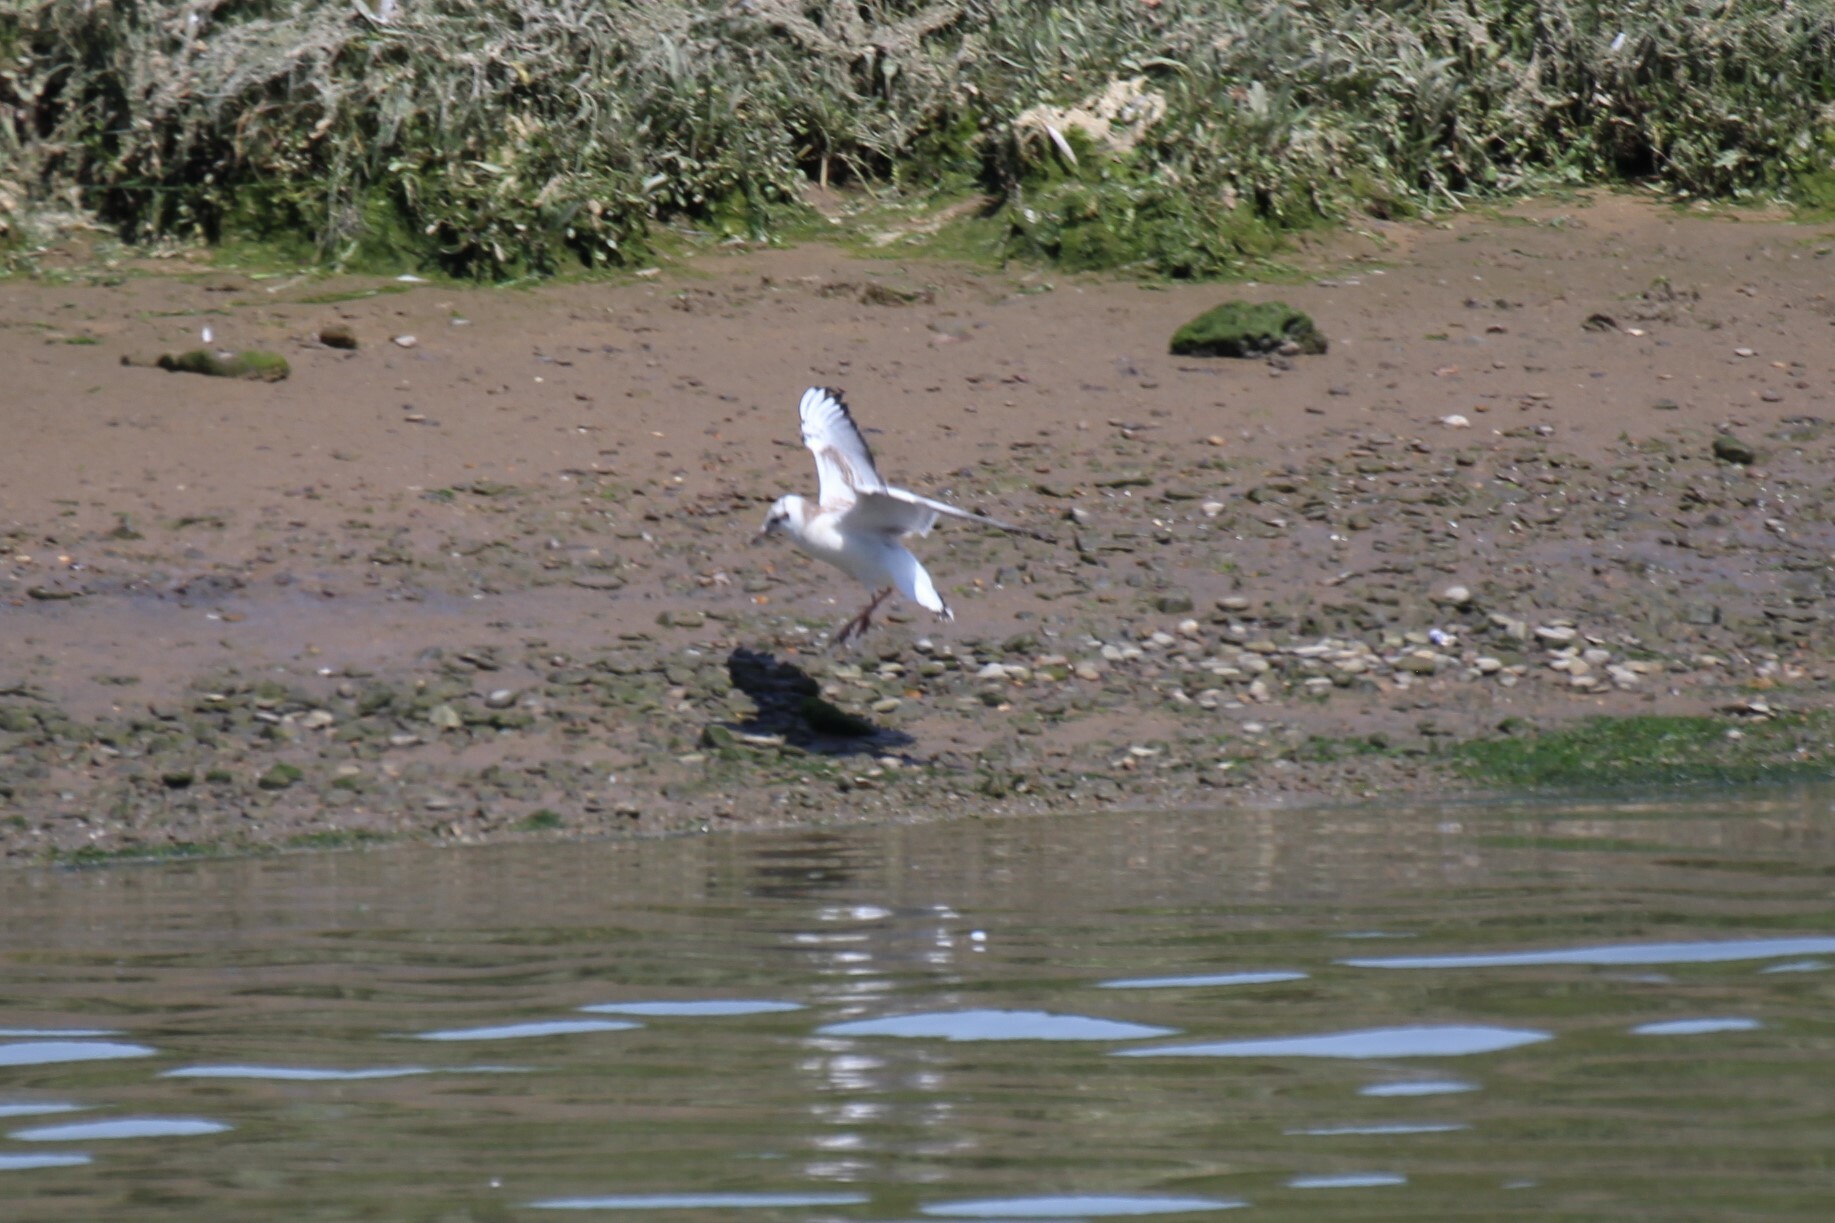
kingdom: Animalia
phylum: Chordata
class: Aves
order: Charadriiformes
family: Laridae
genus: Chroicocephalus
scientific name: Chroicocephalus ridibundus
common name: Black-headed gull
